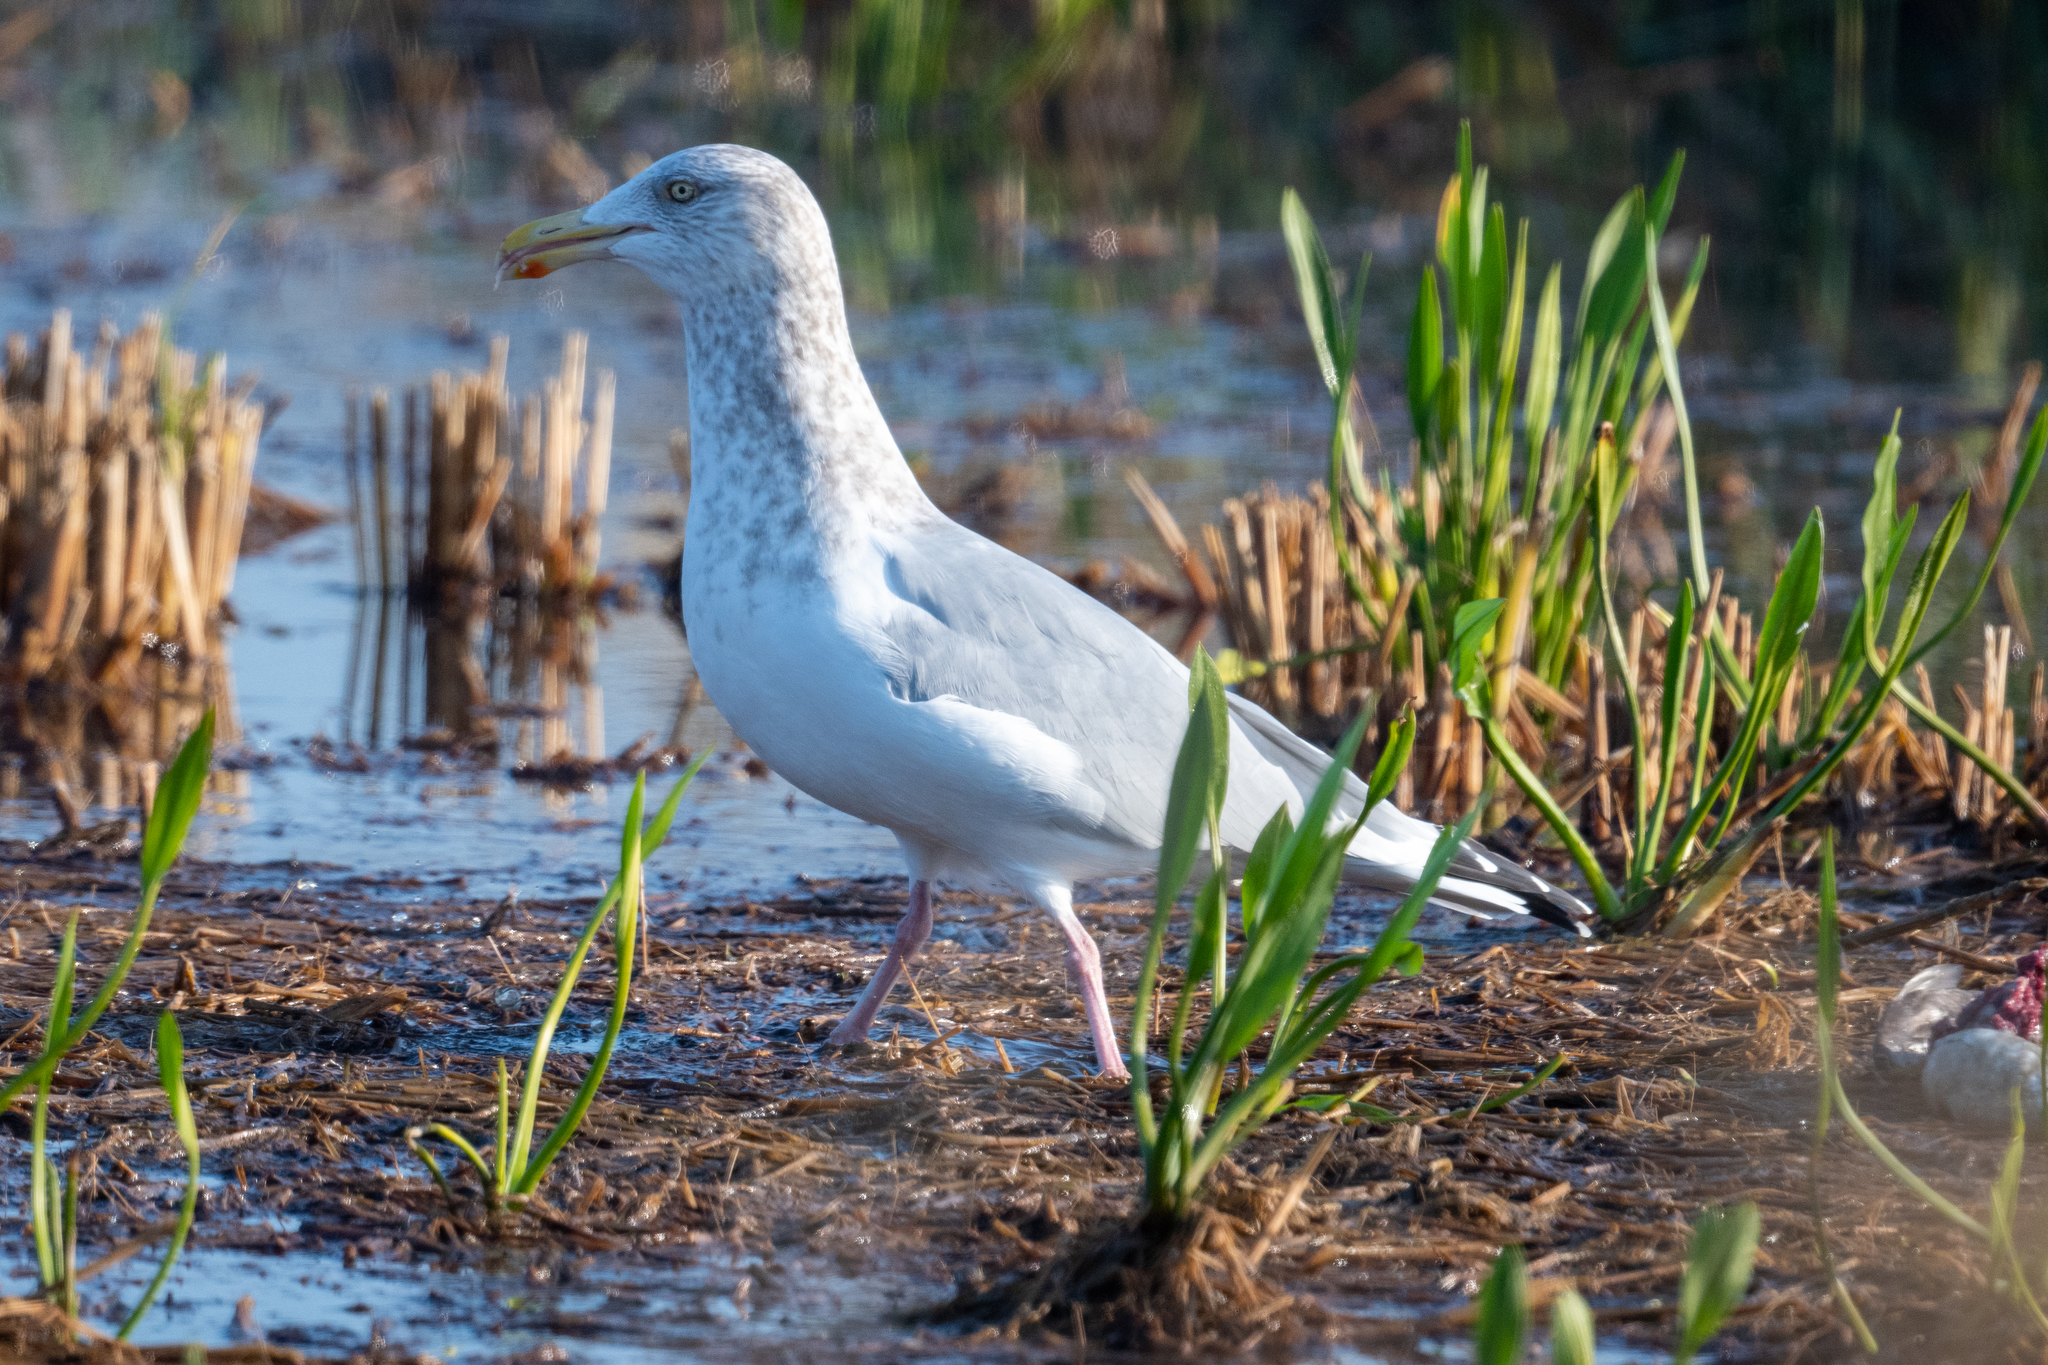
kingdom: Animalia
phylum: Chordata
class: Aves
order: Charadriiformes
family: Laridae
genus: Larus
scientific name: Larus argentatus
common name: Herring gull
